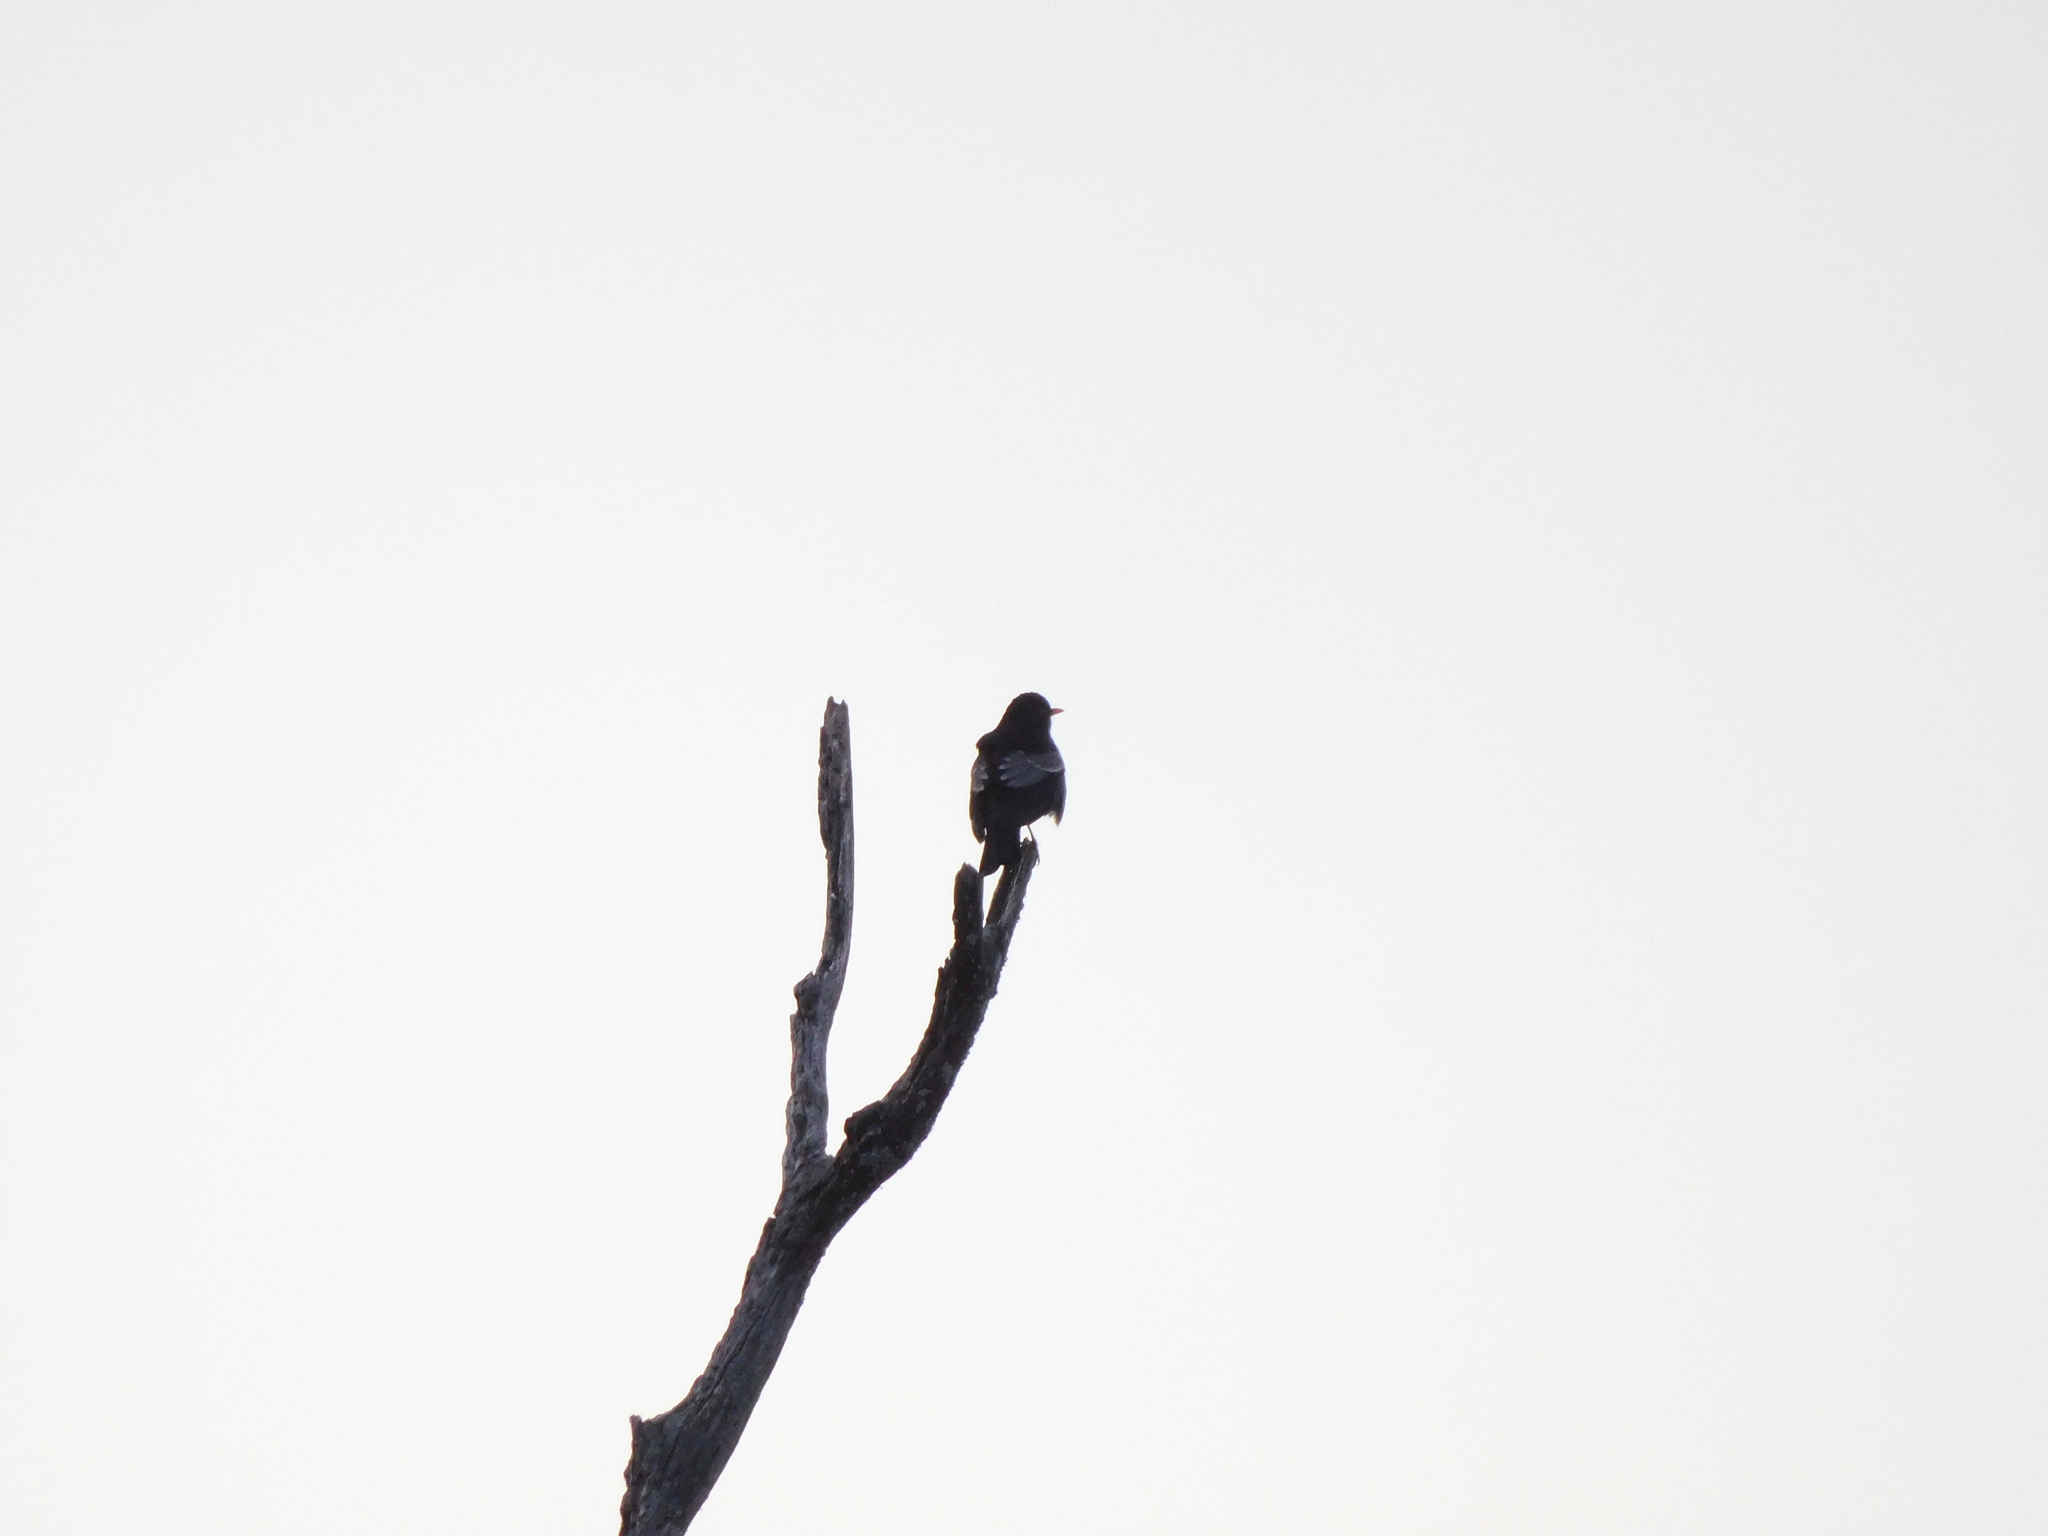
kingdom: Animalia
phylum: Chordata
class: Aves
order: Passeriformes
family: Turdidae
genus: Turdus
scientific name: Turdus boulboul
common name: Grey-winged blackbird
